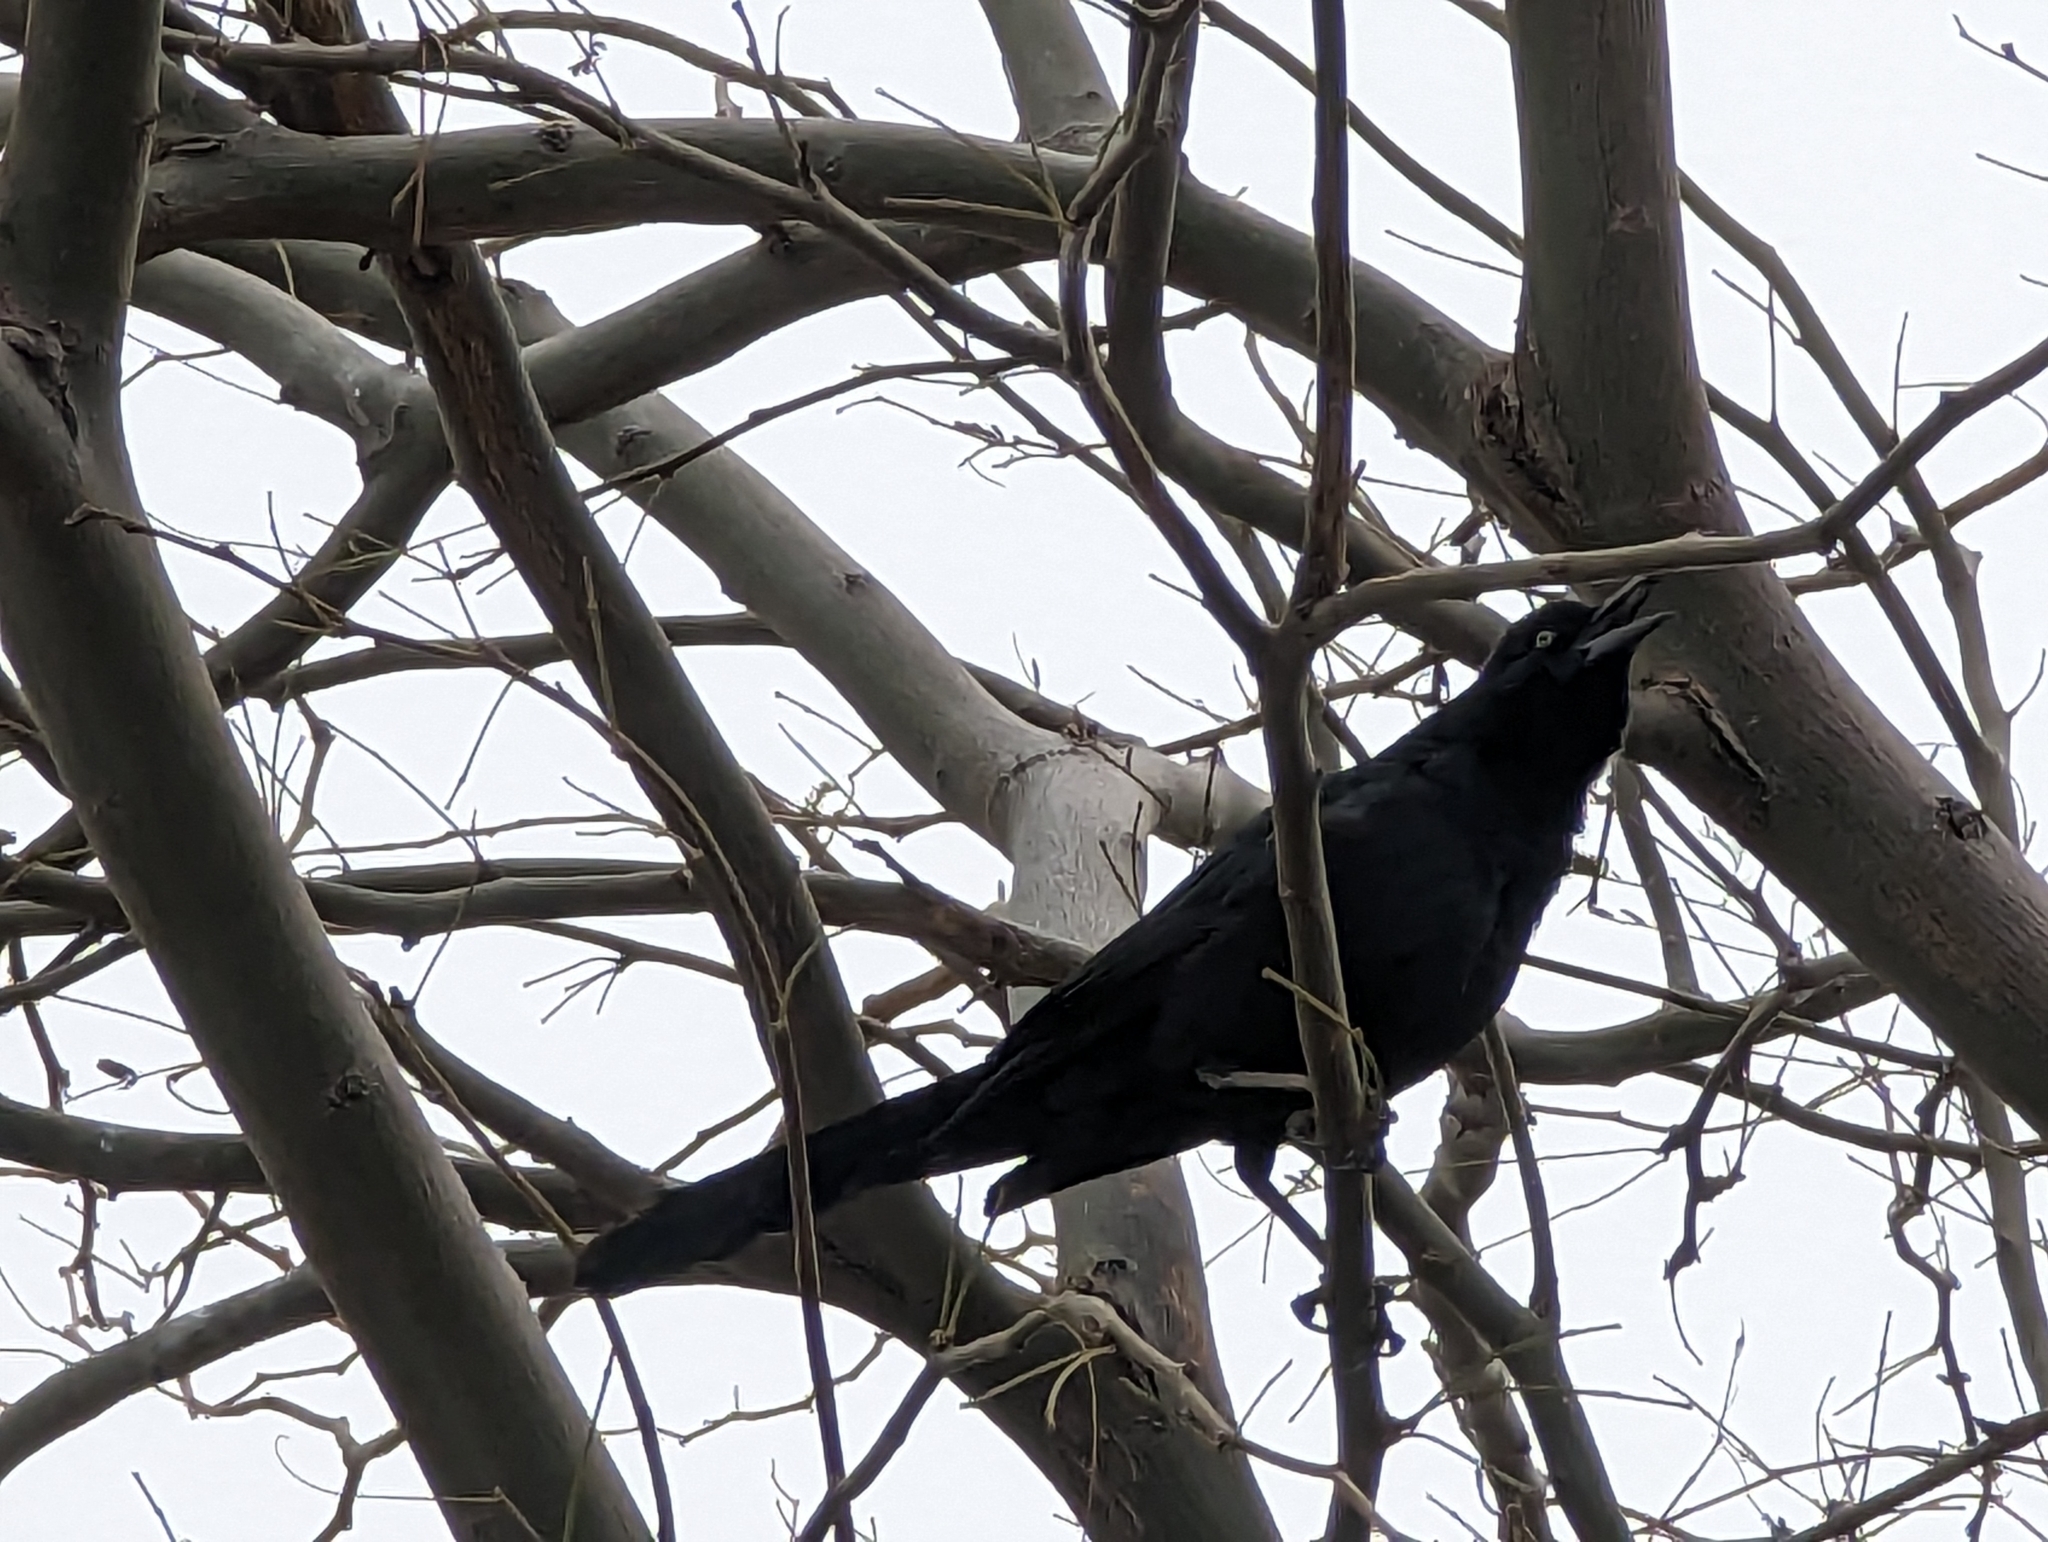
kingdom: Animalia
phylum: Chordata
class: Aves
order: Passeriformes
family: Icteridae
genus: Quiscalus
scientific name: Quiscalus mexicanus
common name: Great-tailed grackle
